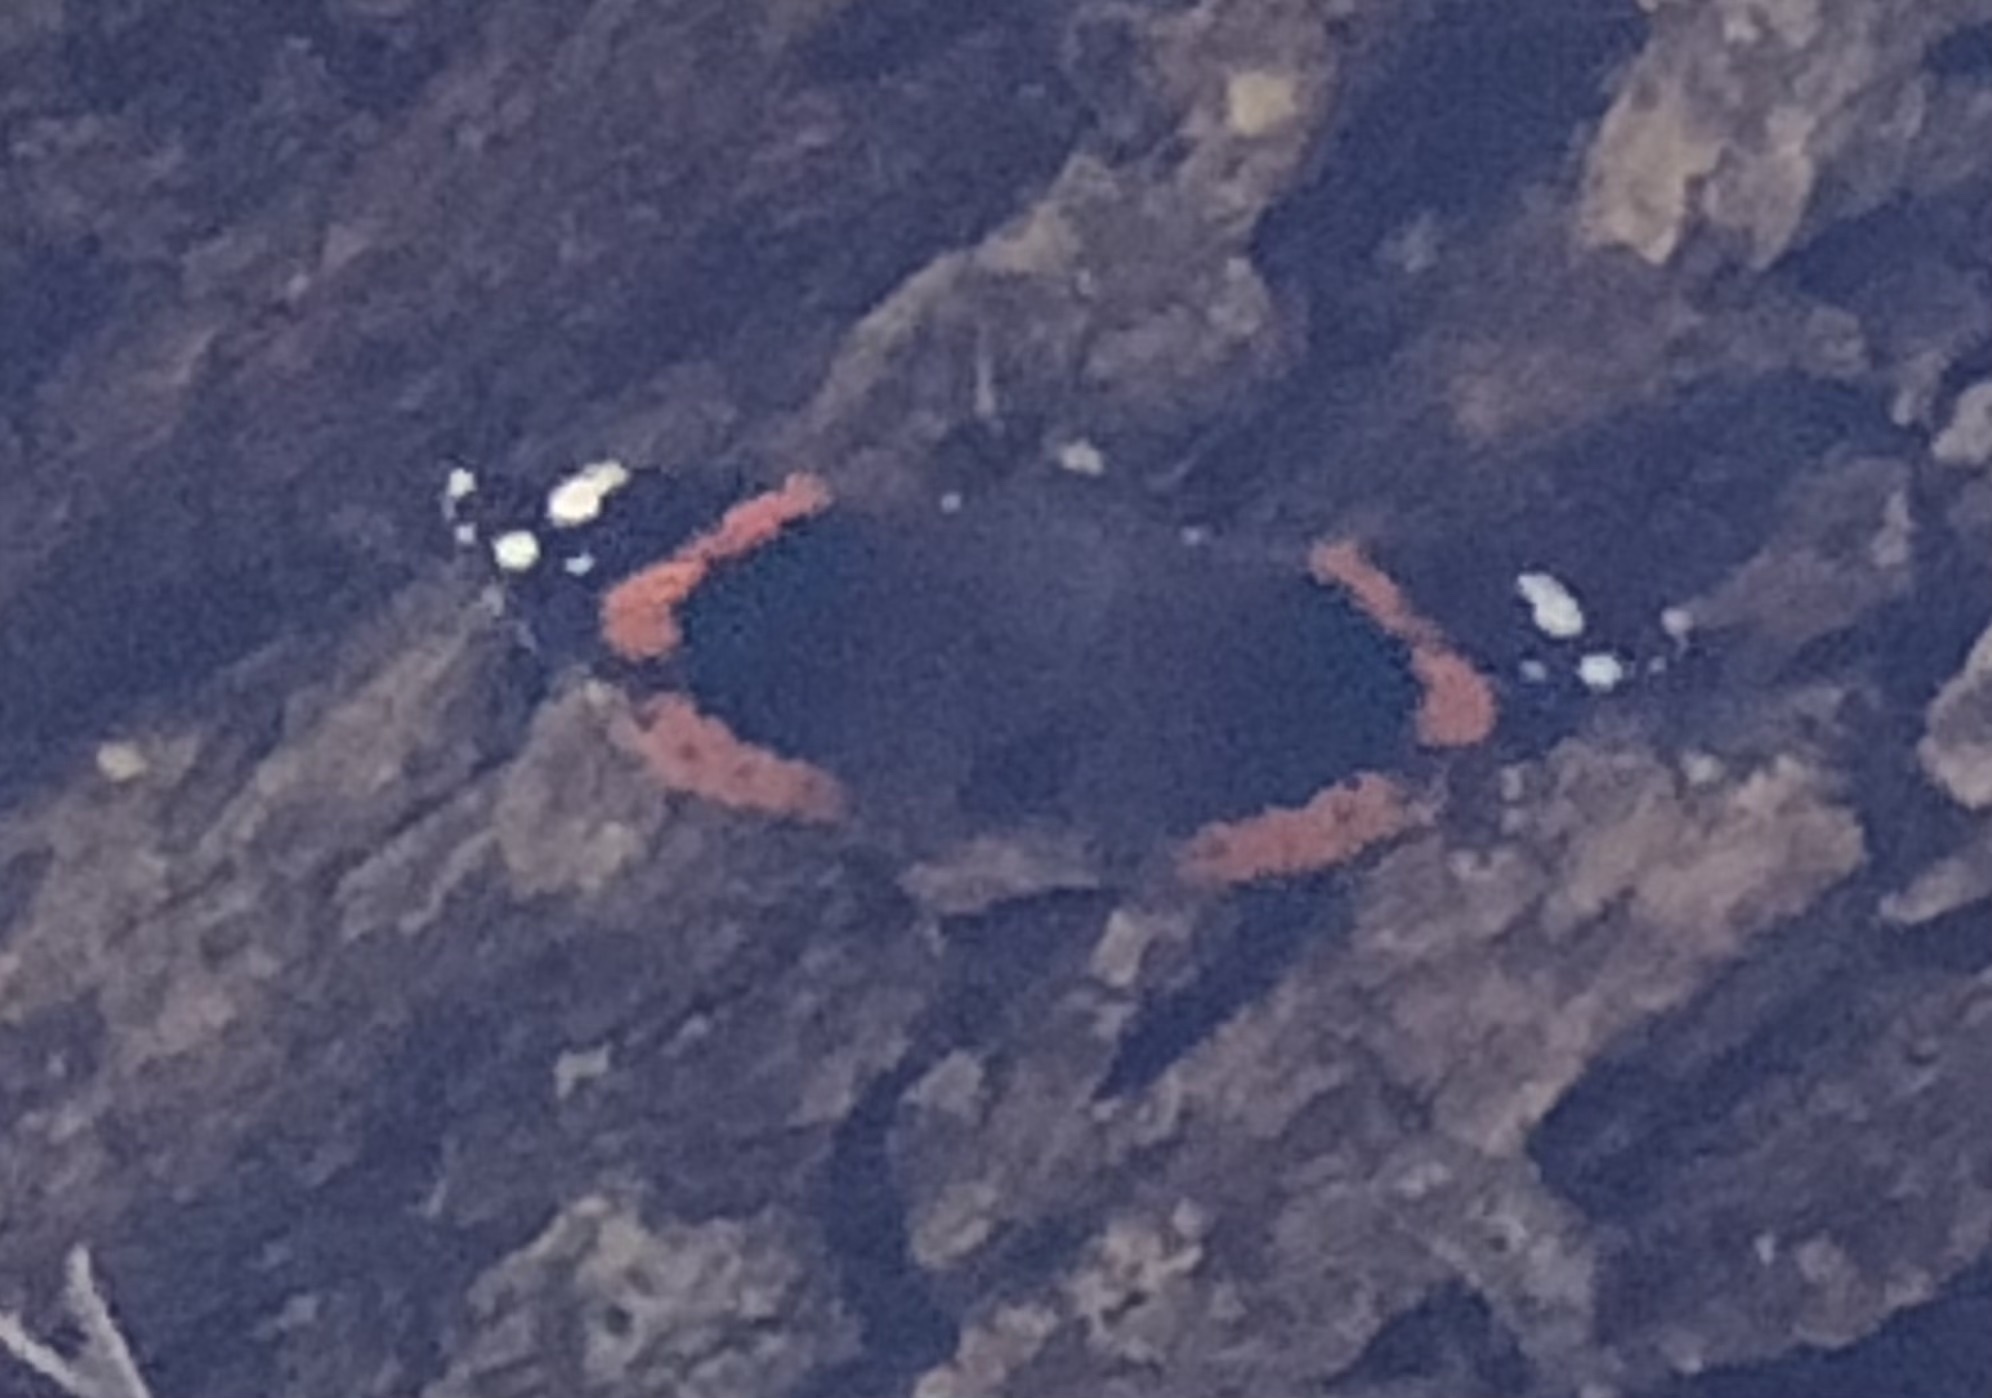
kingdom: Animalia
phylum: Arthropoda
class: Insecta
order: Lepidoptera
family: Nymphalidae
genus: Vanessa
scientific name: Vanessa atalanta
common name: Red admiral
